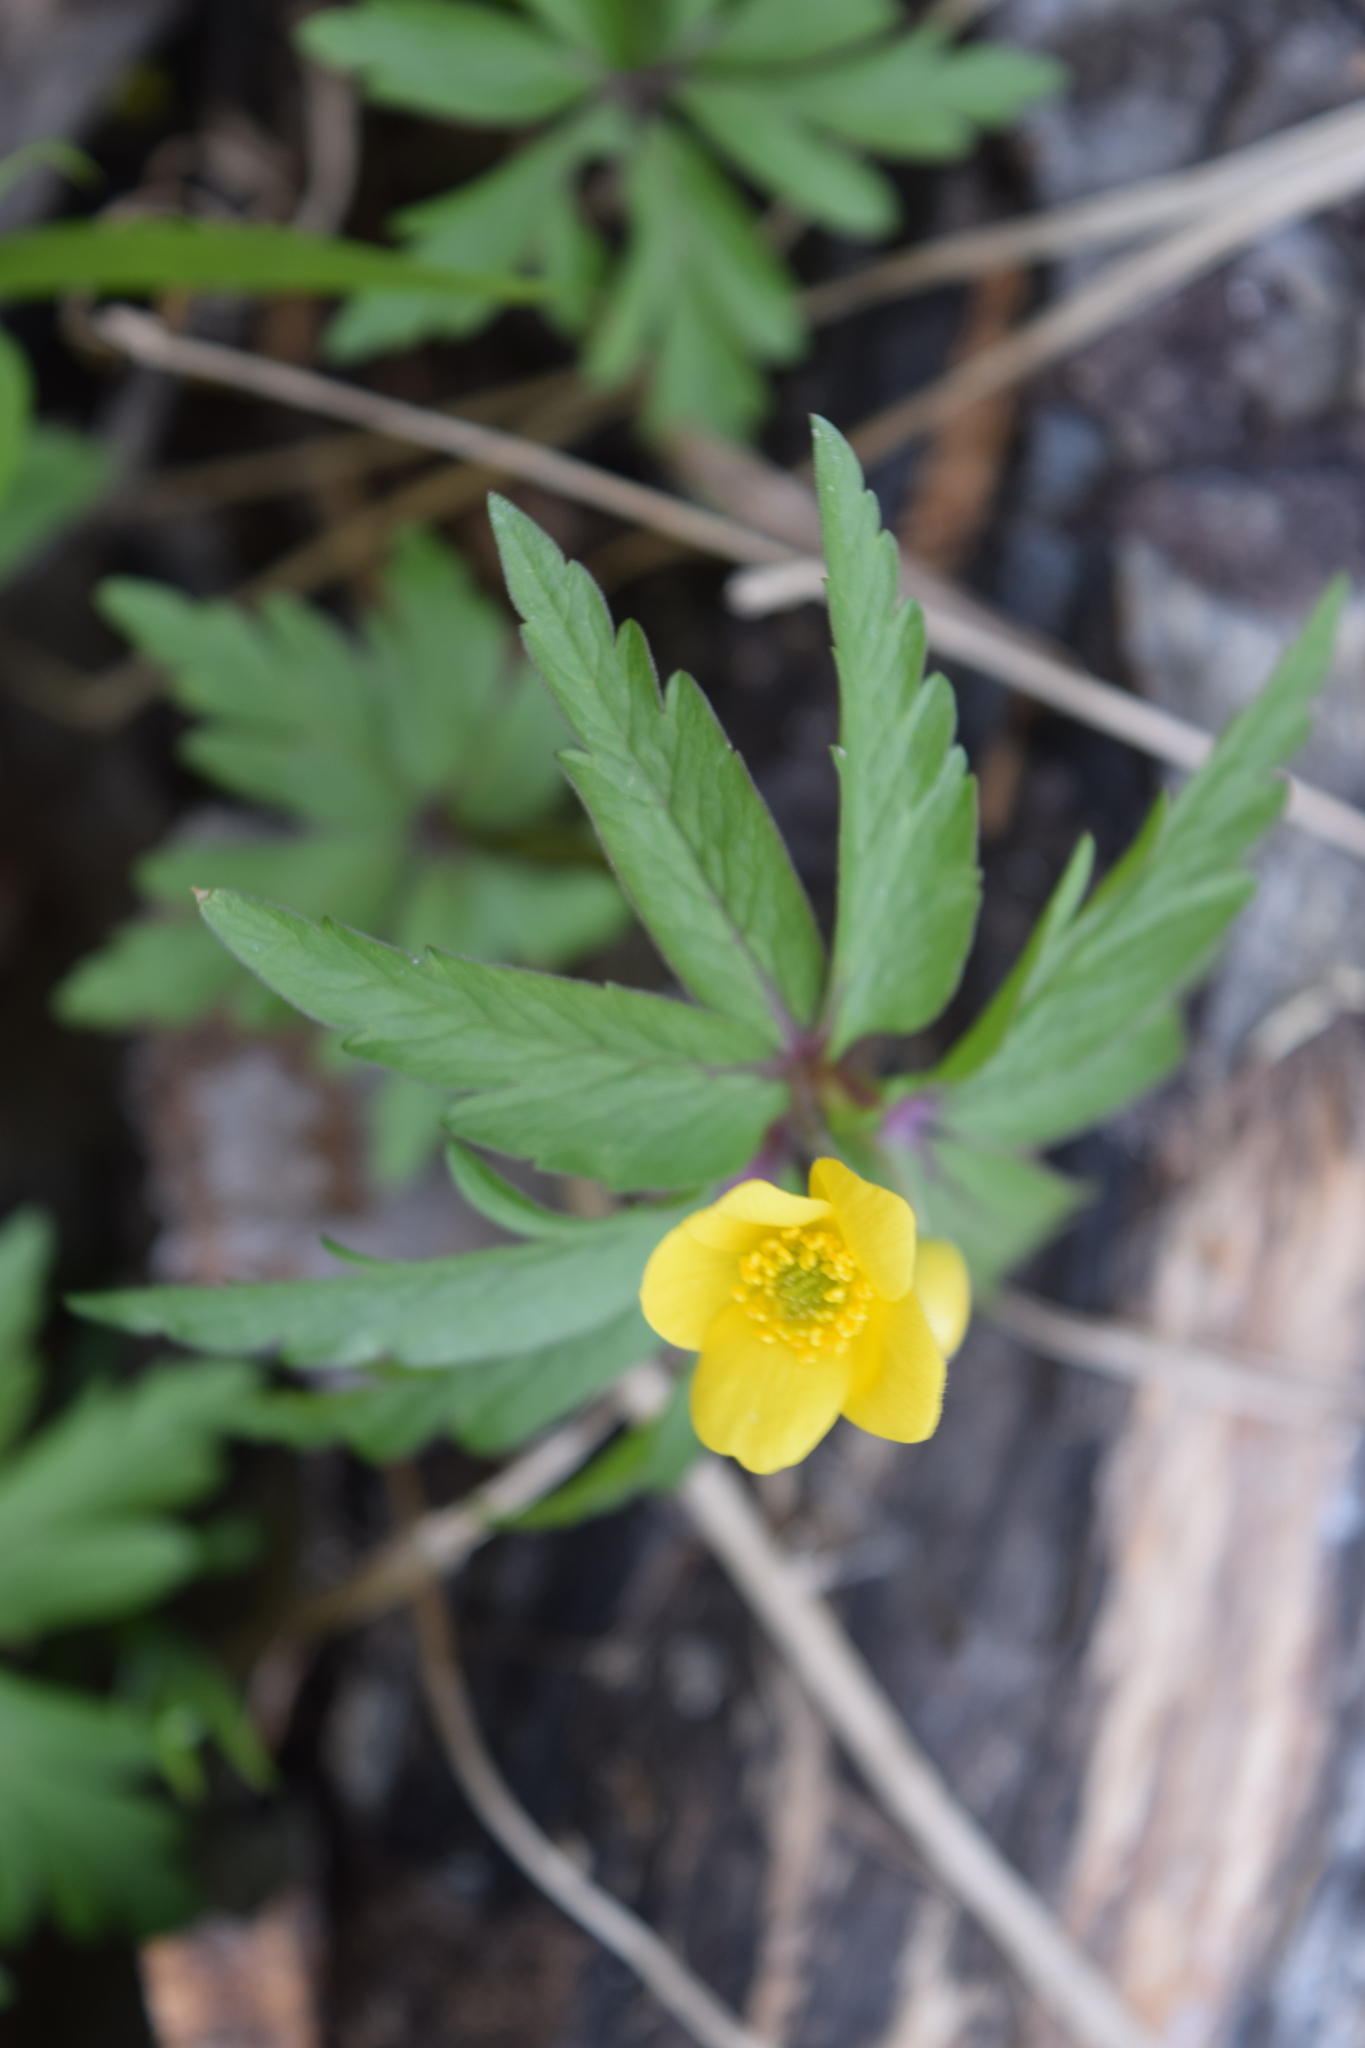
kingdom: Plantae
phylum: Tracheophyta
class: Magnoliopsida
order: Ranunculales
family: Ranunculaceae
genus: Anemone
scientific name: Anemone ranunculoides
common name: Yellow anemone
